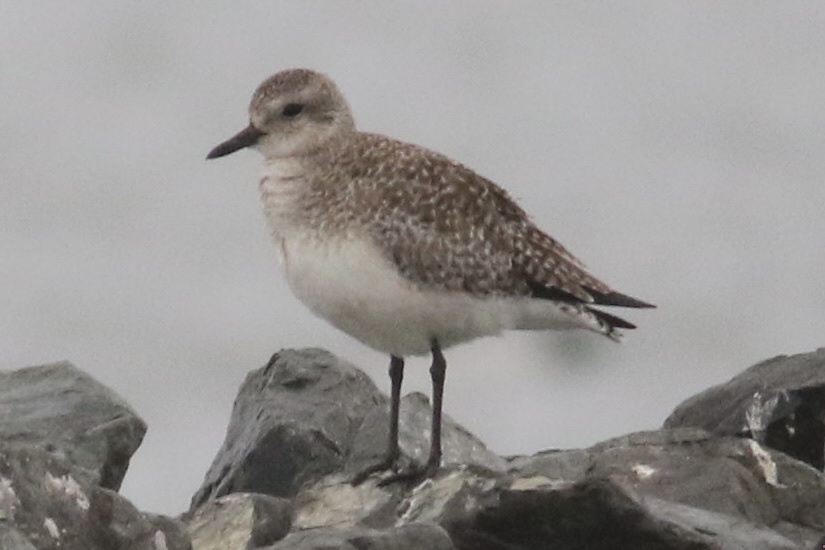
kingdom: Animalia
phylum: Chordata
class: Aves
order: Charadriiformes
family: Charadriidae
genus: Pluvialis
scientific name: Pluvialis squatarola
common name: Grey plover
